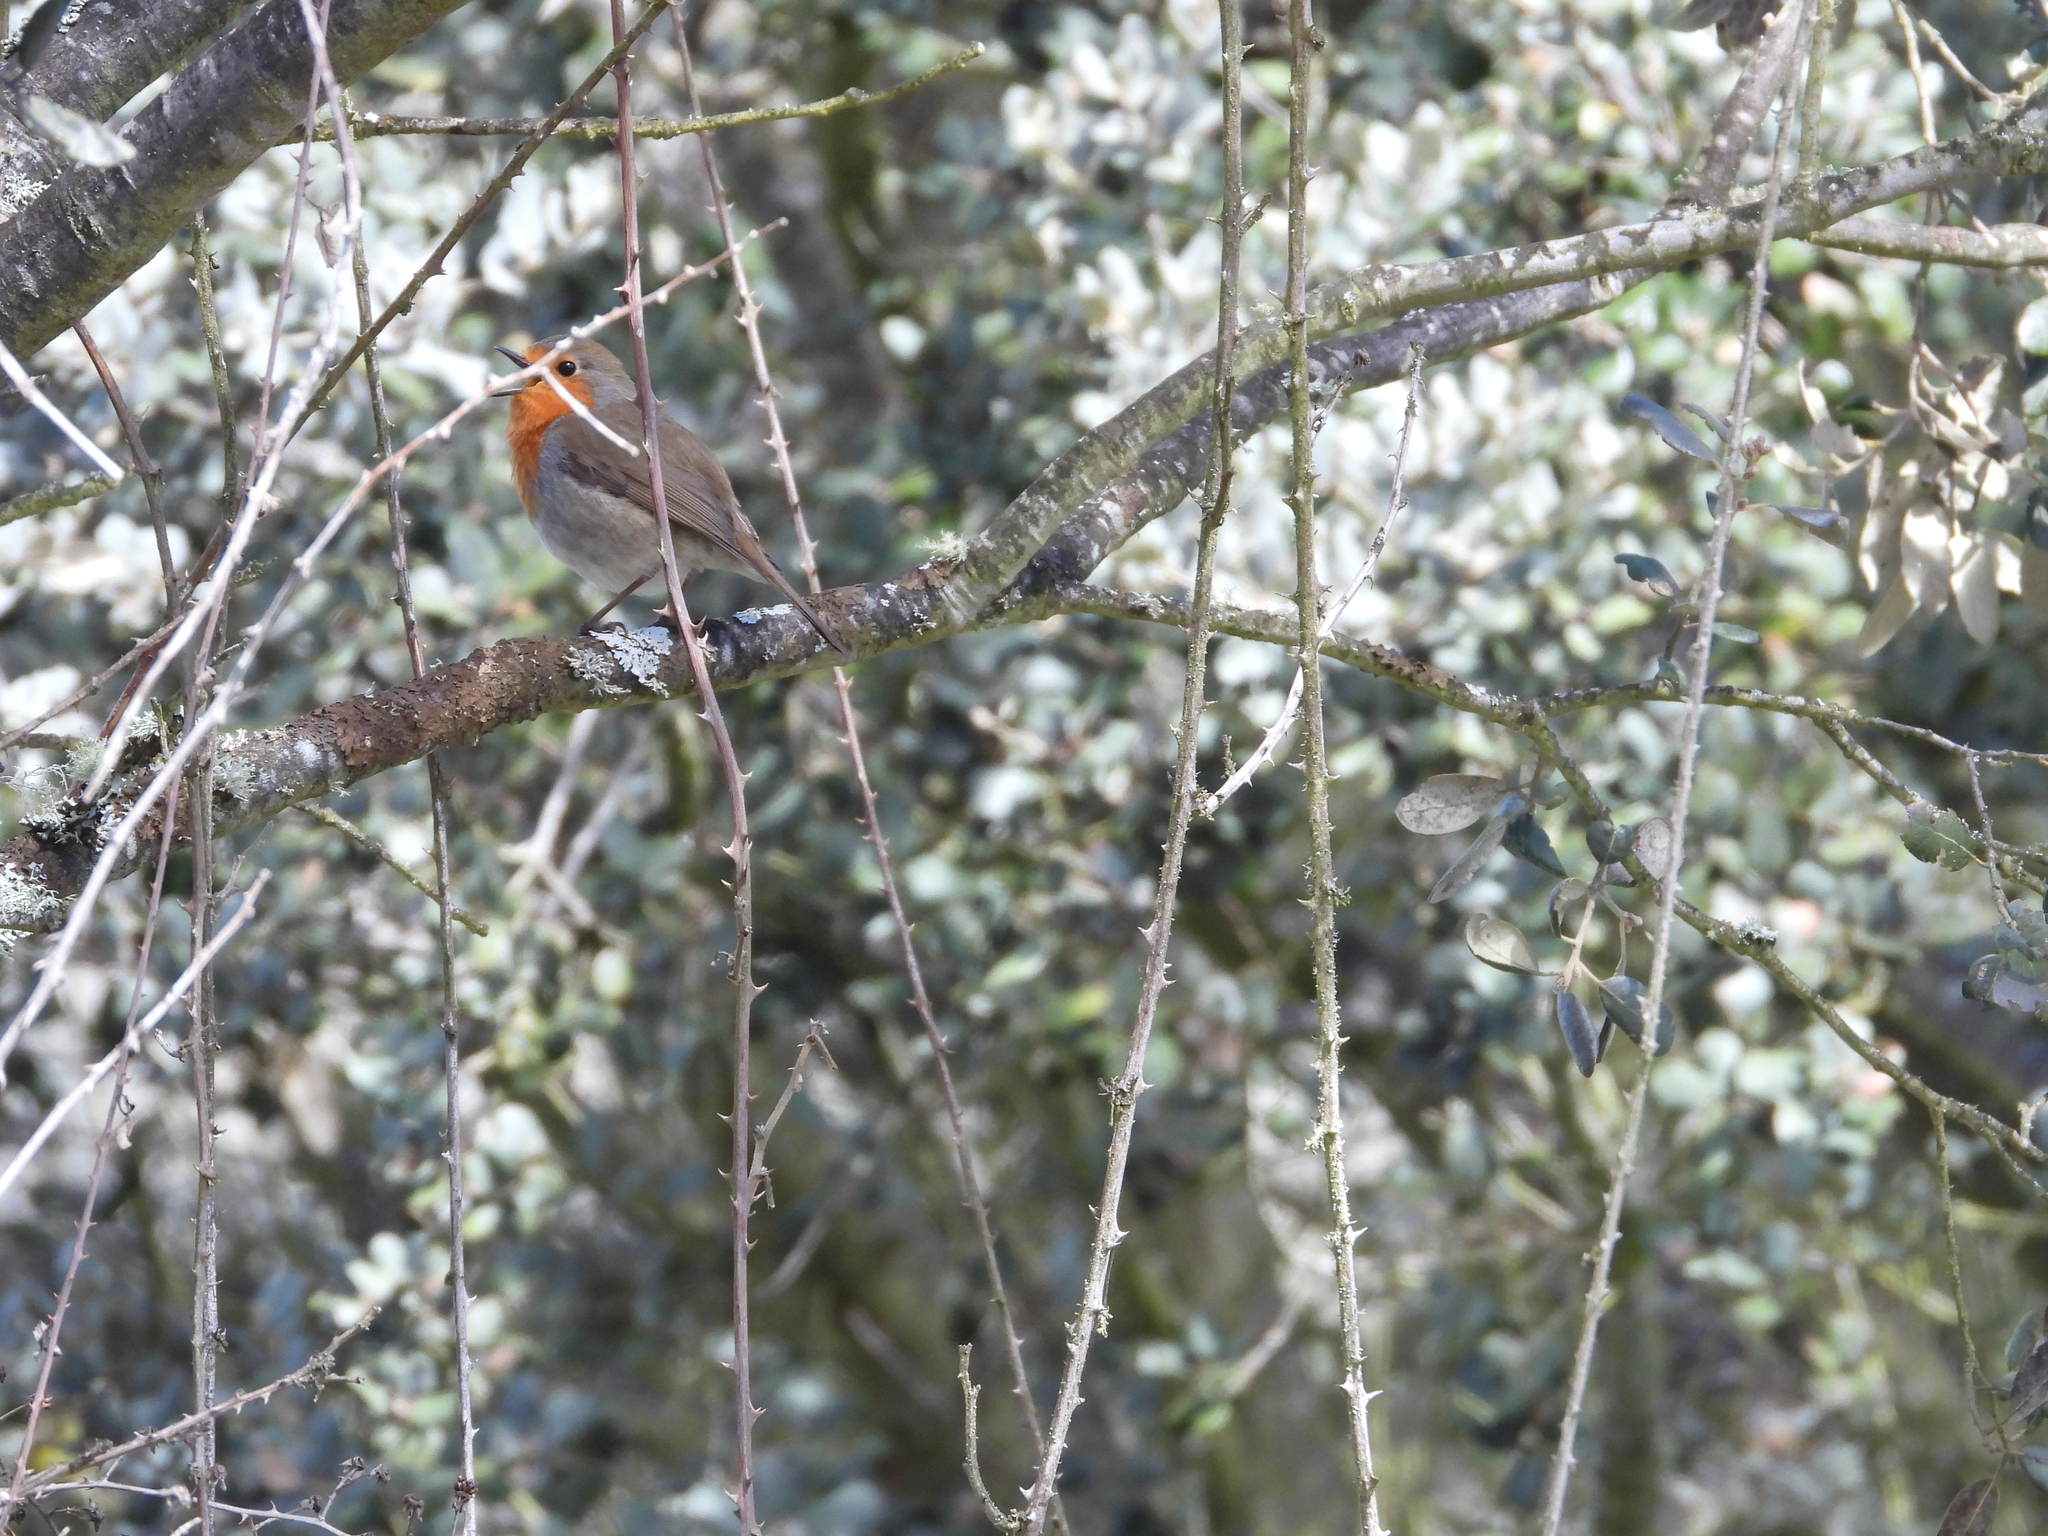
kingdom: Animalia
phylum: Chordata
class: Aves
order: Passeriformes
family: Muscicapidae
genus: Erithacus
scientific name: Erithacus rubecula
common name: European robin
